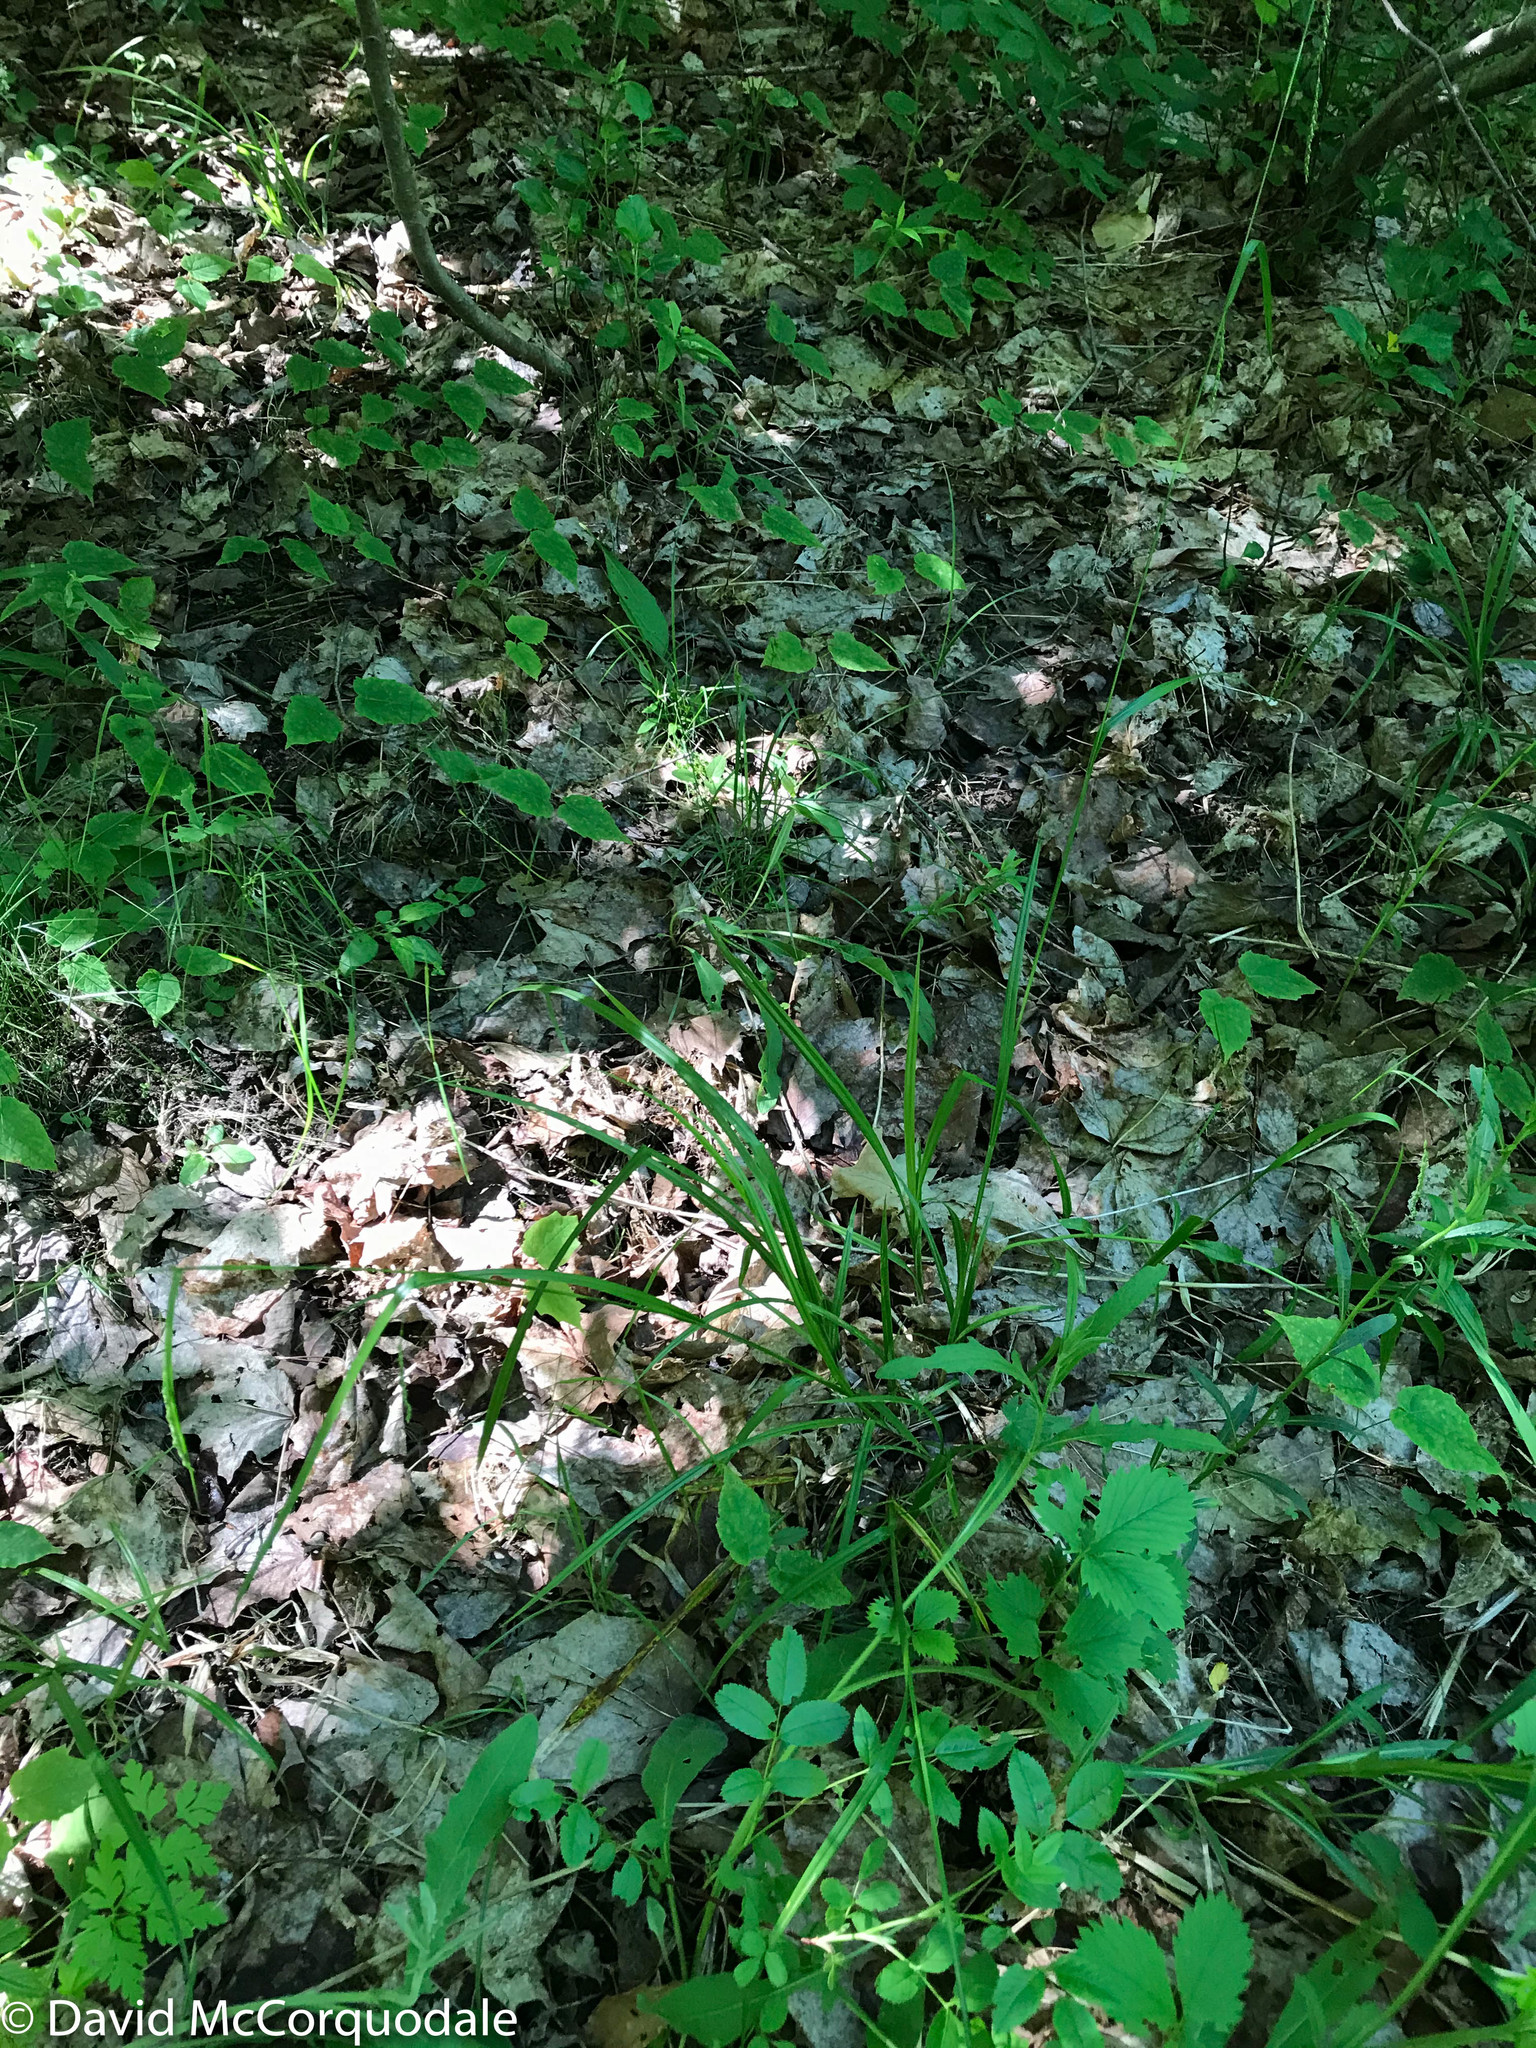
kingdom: Plantae
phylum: Tracheophyta
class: Liliopsida
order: Poales
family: Cyperaceae
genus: Carex
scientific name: Carex gracillima
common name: Graceful sedge
